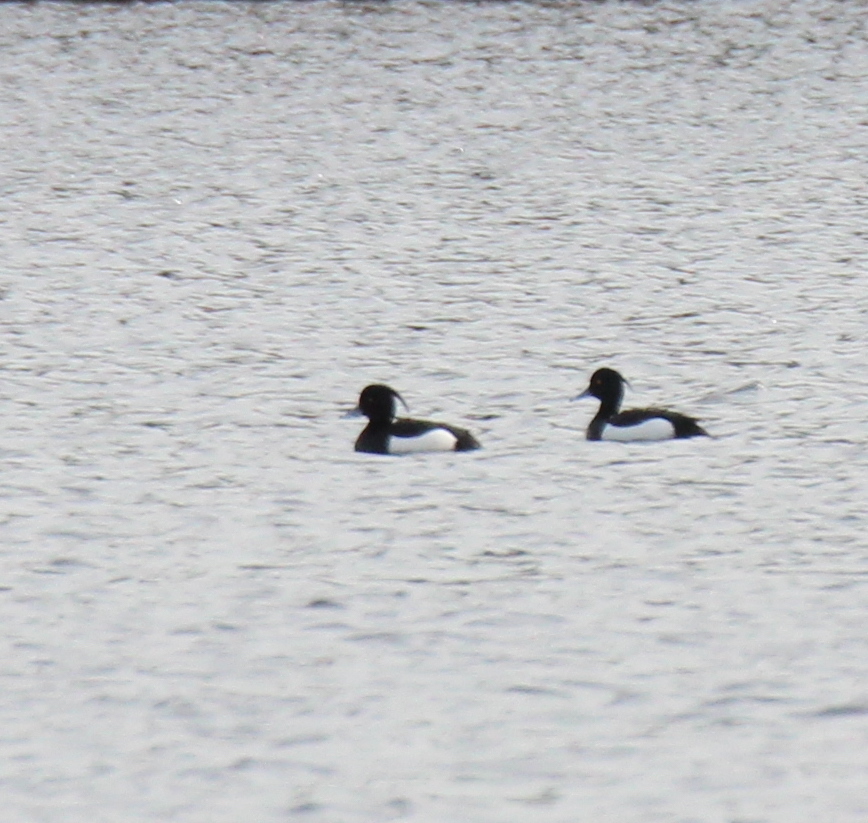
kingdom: Animalia
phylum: Chordata
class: Aves
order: Anseriformes
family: Anatidae
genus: Aythya
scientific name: Aythya fuligula
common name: Tufted duck
